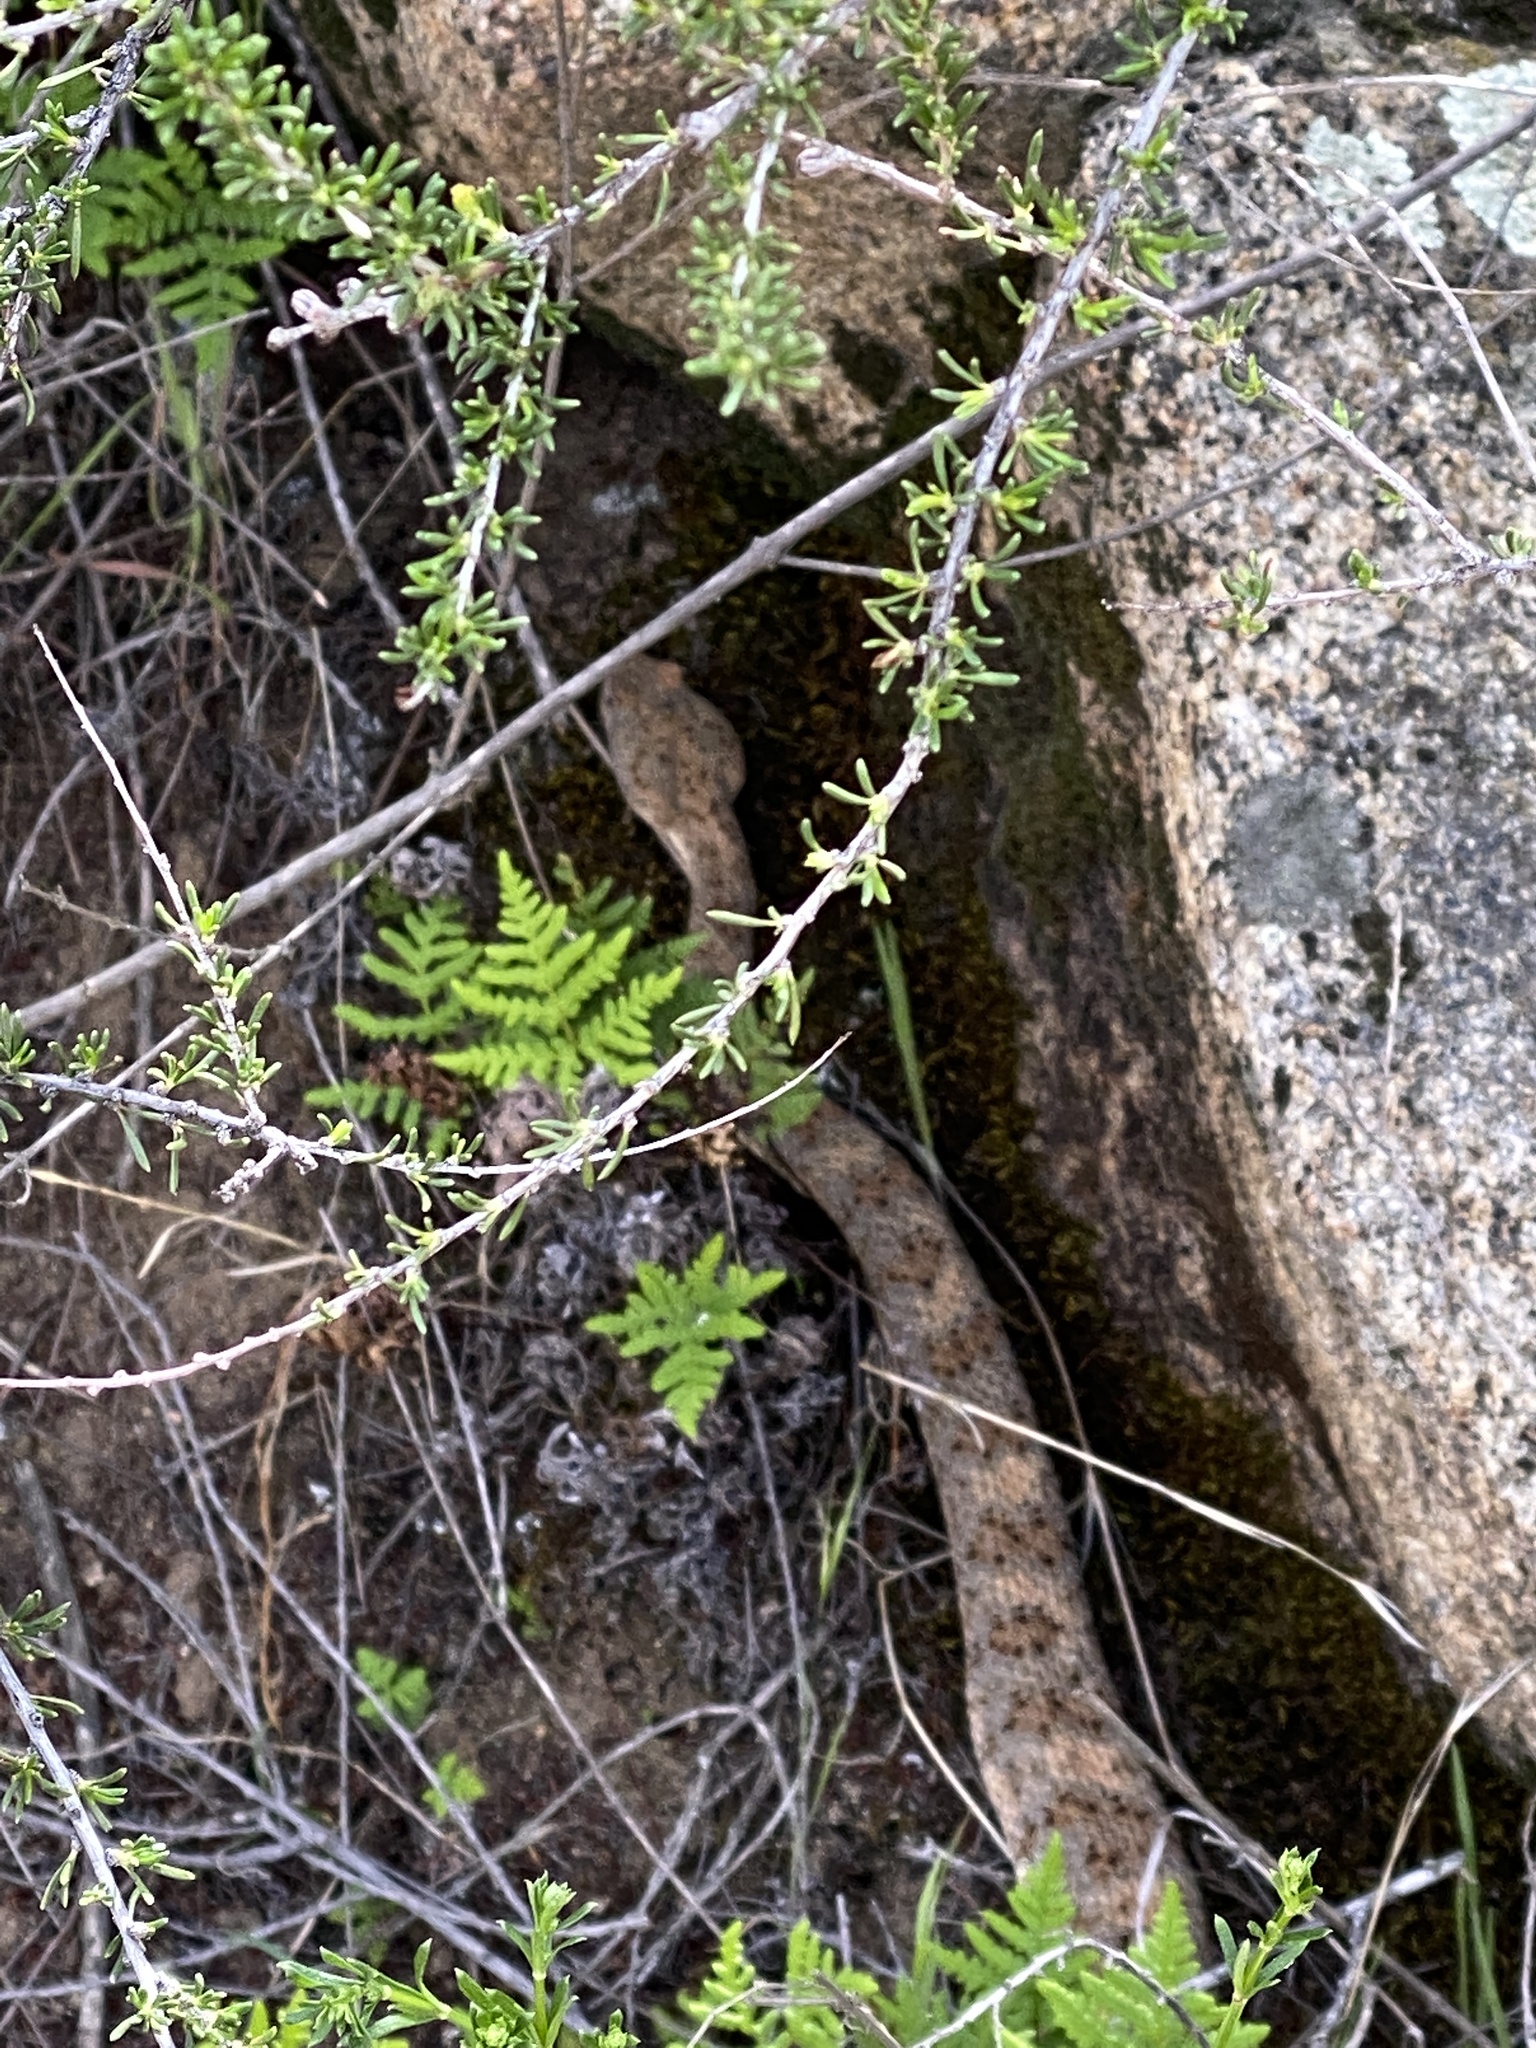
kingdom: Animalia
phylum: Chordata
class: Squamata
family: Viperidae
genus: Crotalus
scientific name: Crotalus pyrrhus
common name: Southwestern speckled rattlesnake
